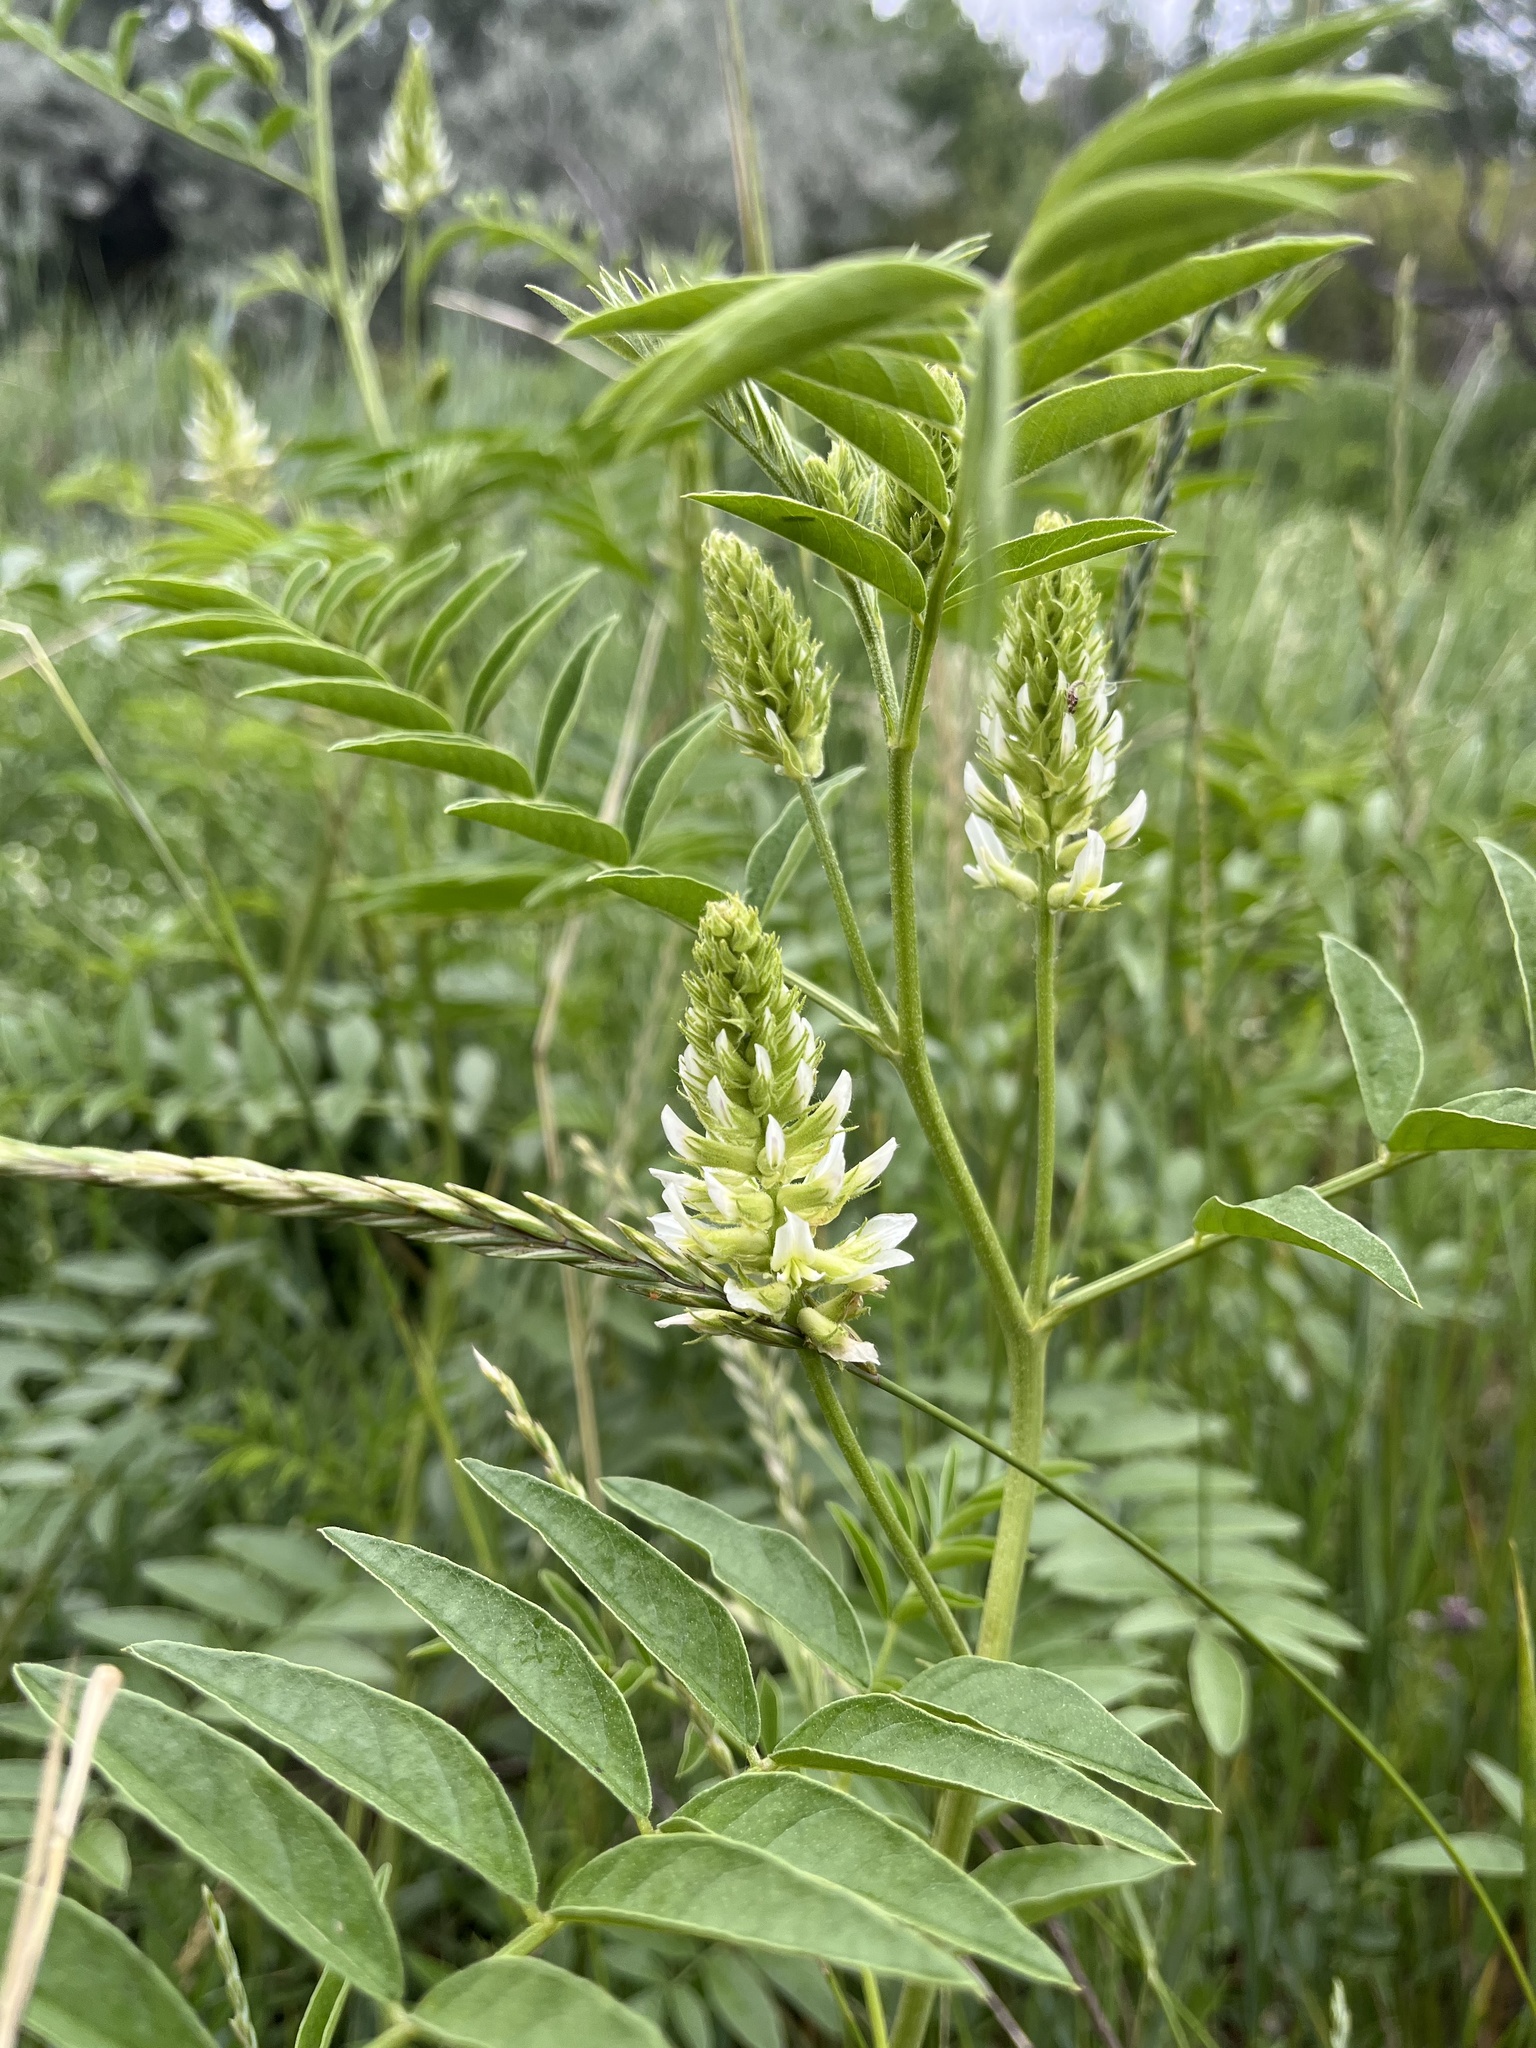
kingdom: Plantae
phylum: Tracheophyta
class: Magnoliopsida
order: Fabales
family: Fabaceae
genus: Glycyrrhiza
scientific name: Glycyrrhiza lepidota
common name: American liquorice
